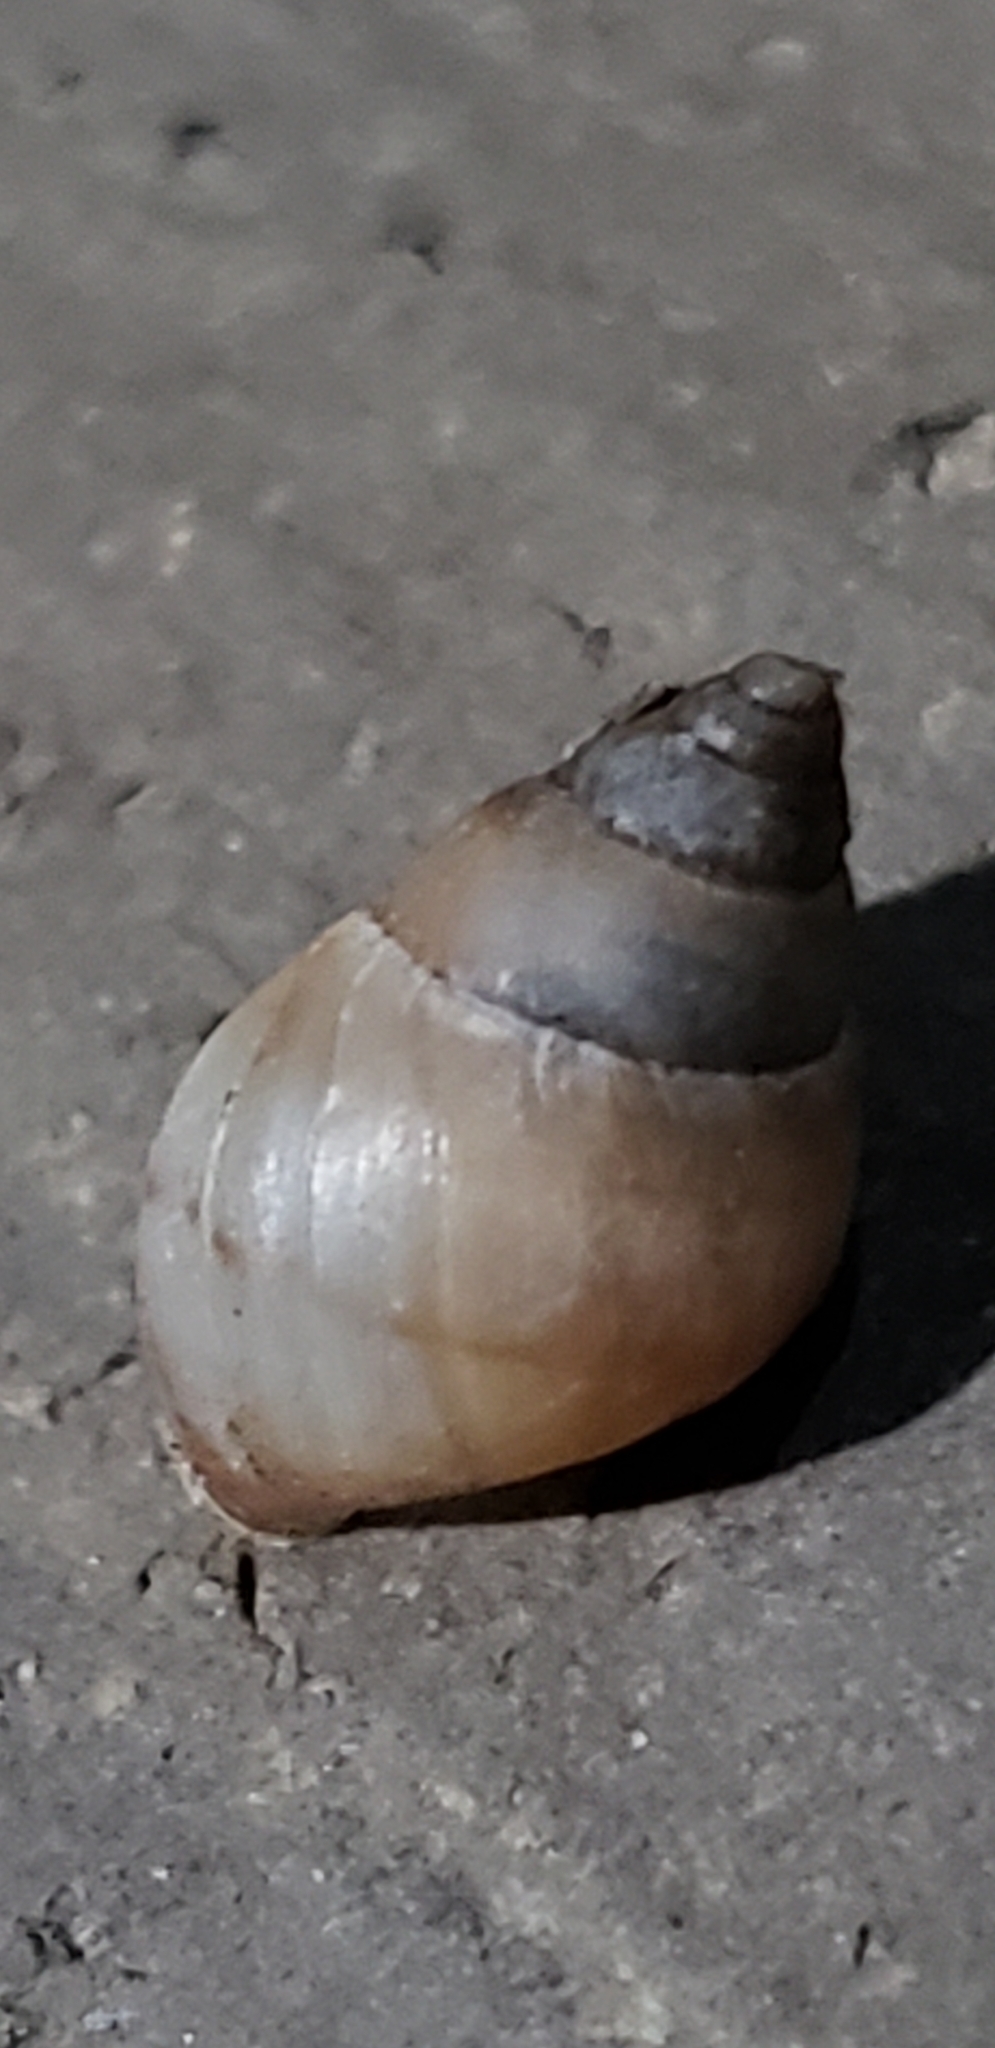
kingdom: Animalia
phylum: Mollusca
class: Gastropoda
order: Stylommatophora
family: Bulimulidae
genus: Bulimulus
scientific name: Bulimulus guadalupensis
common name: West indian bulimulus
